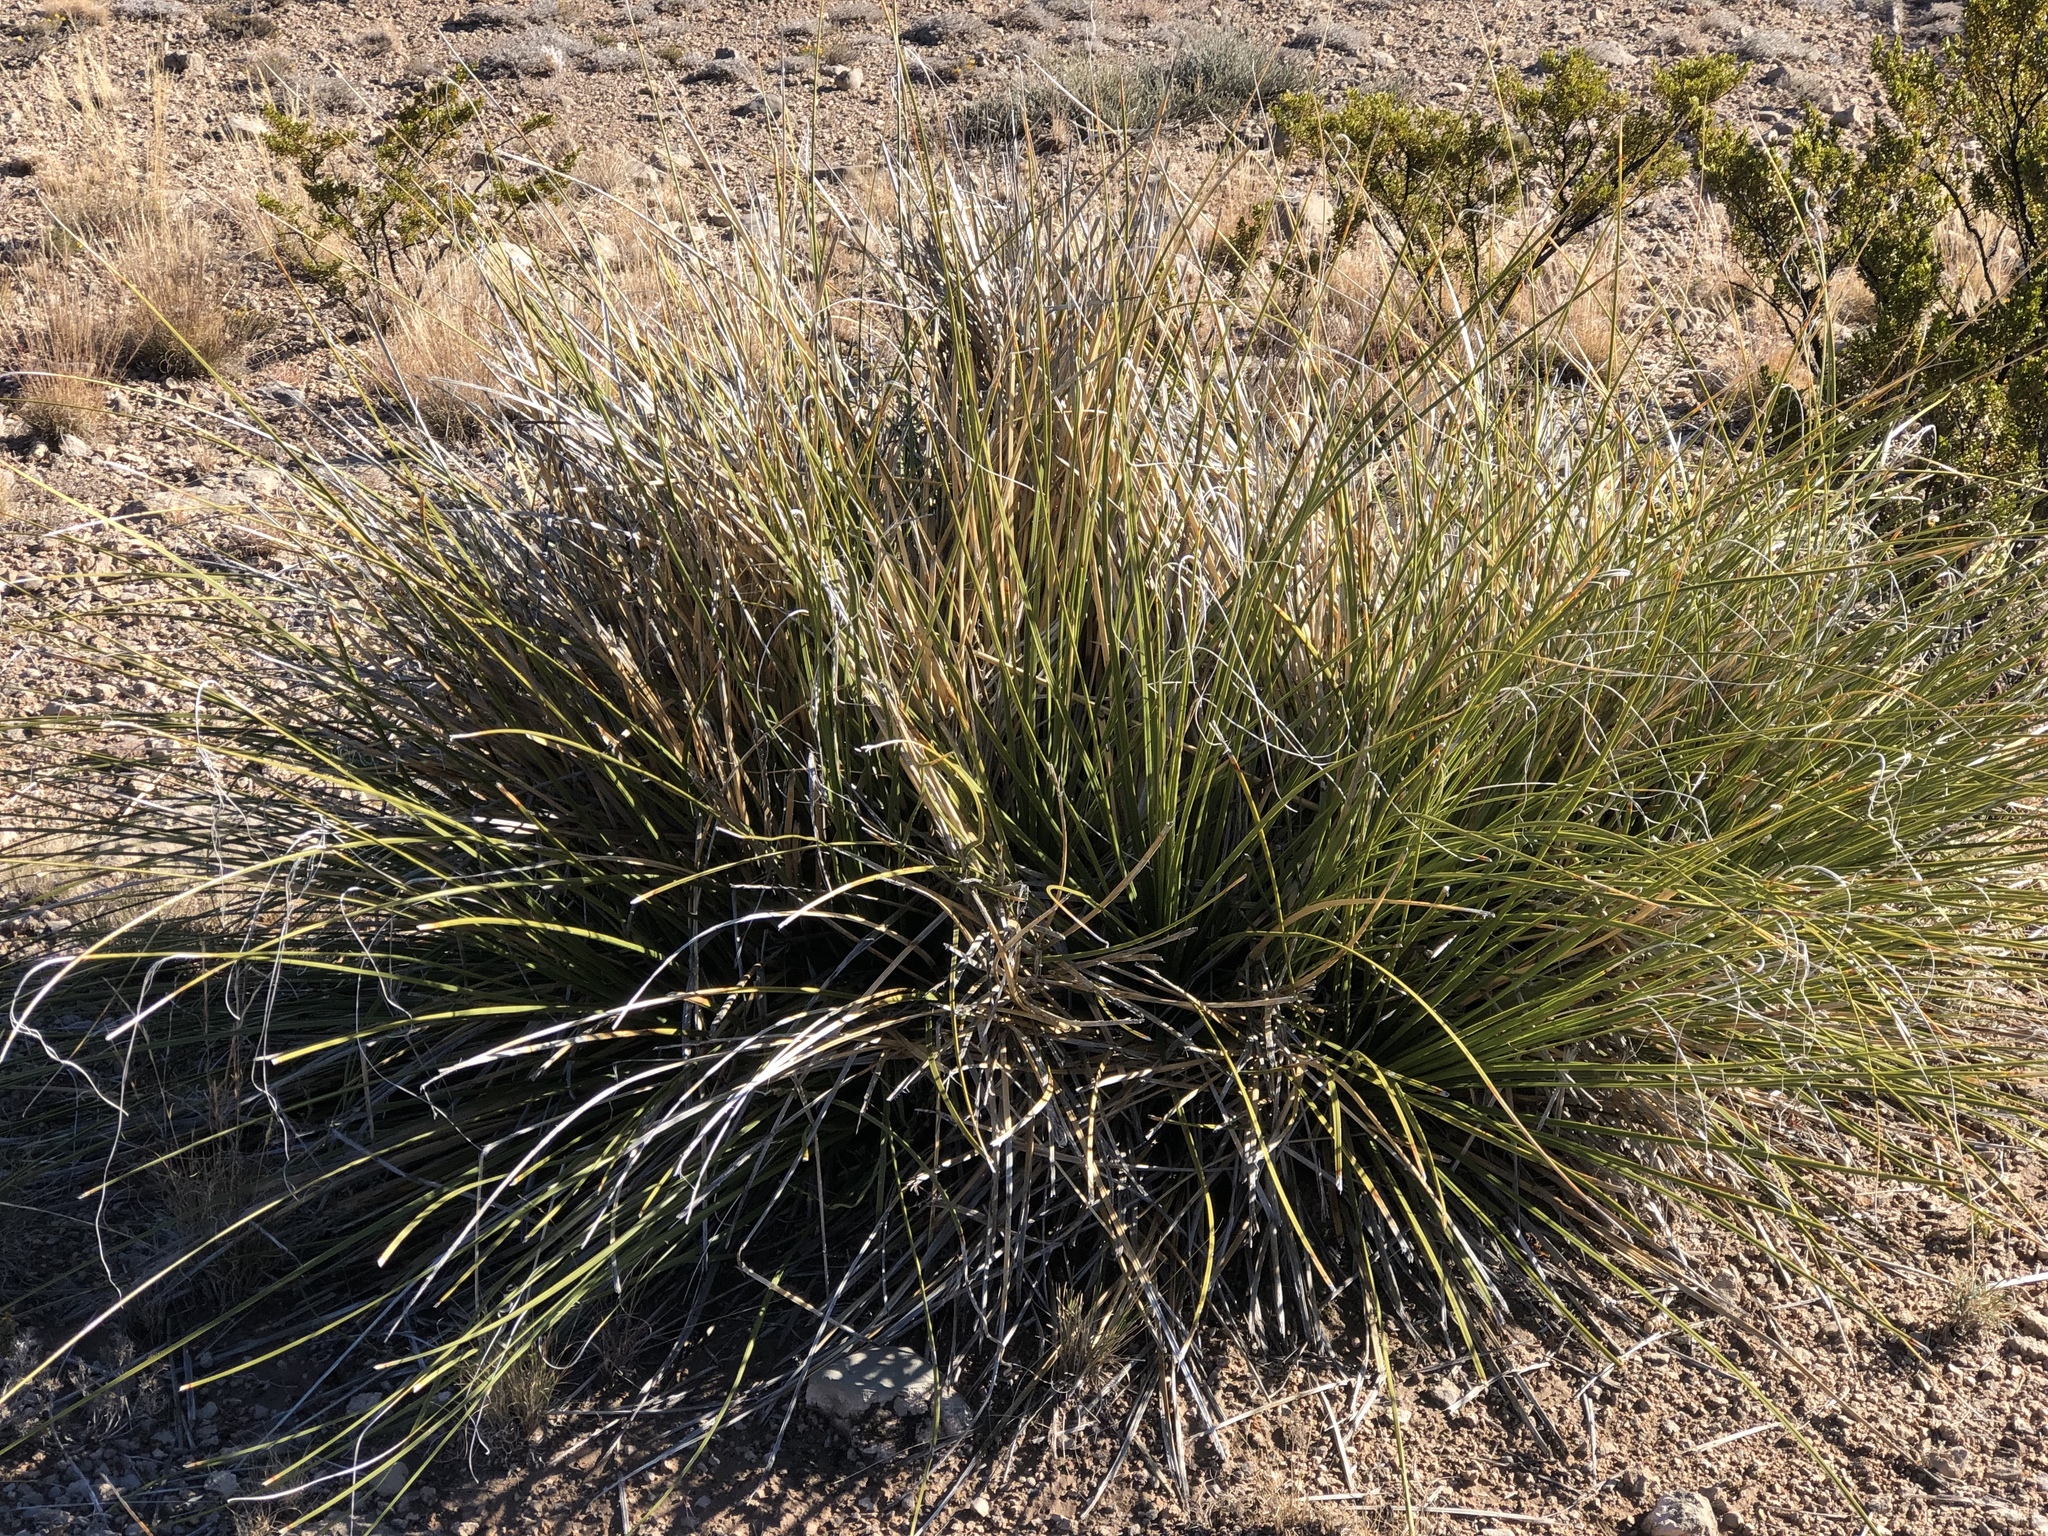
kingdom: Plantae
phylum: Tracheophyta
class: Liliopsida
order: Asparagales
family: Asparagaceae
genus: Nolina
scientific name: Nolina microcarpa
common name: Bear-grass
